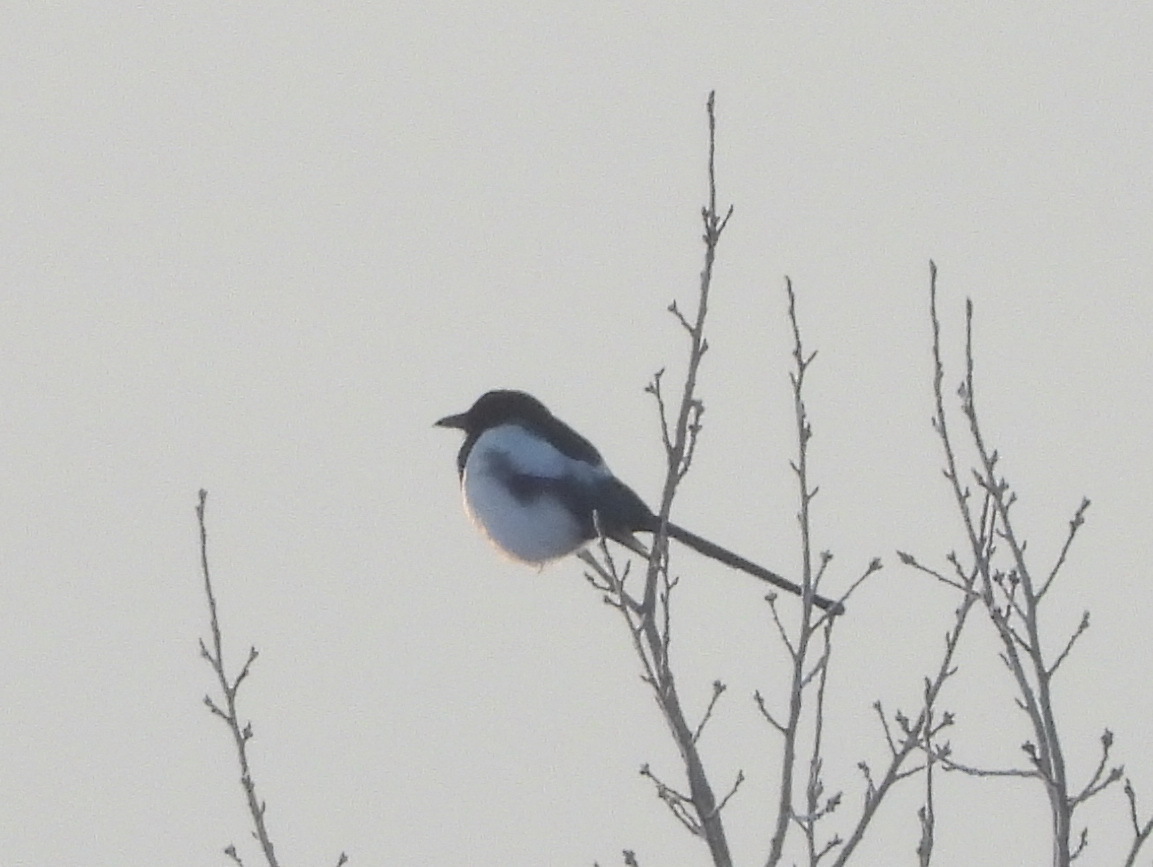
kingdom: Animalia
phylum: Chordata
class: Aves
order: Passeriformes
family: Corvidae
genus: Pica
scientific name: Pica pica
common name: Eurasian magpie
